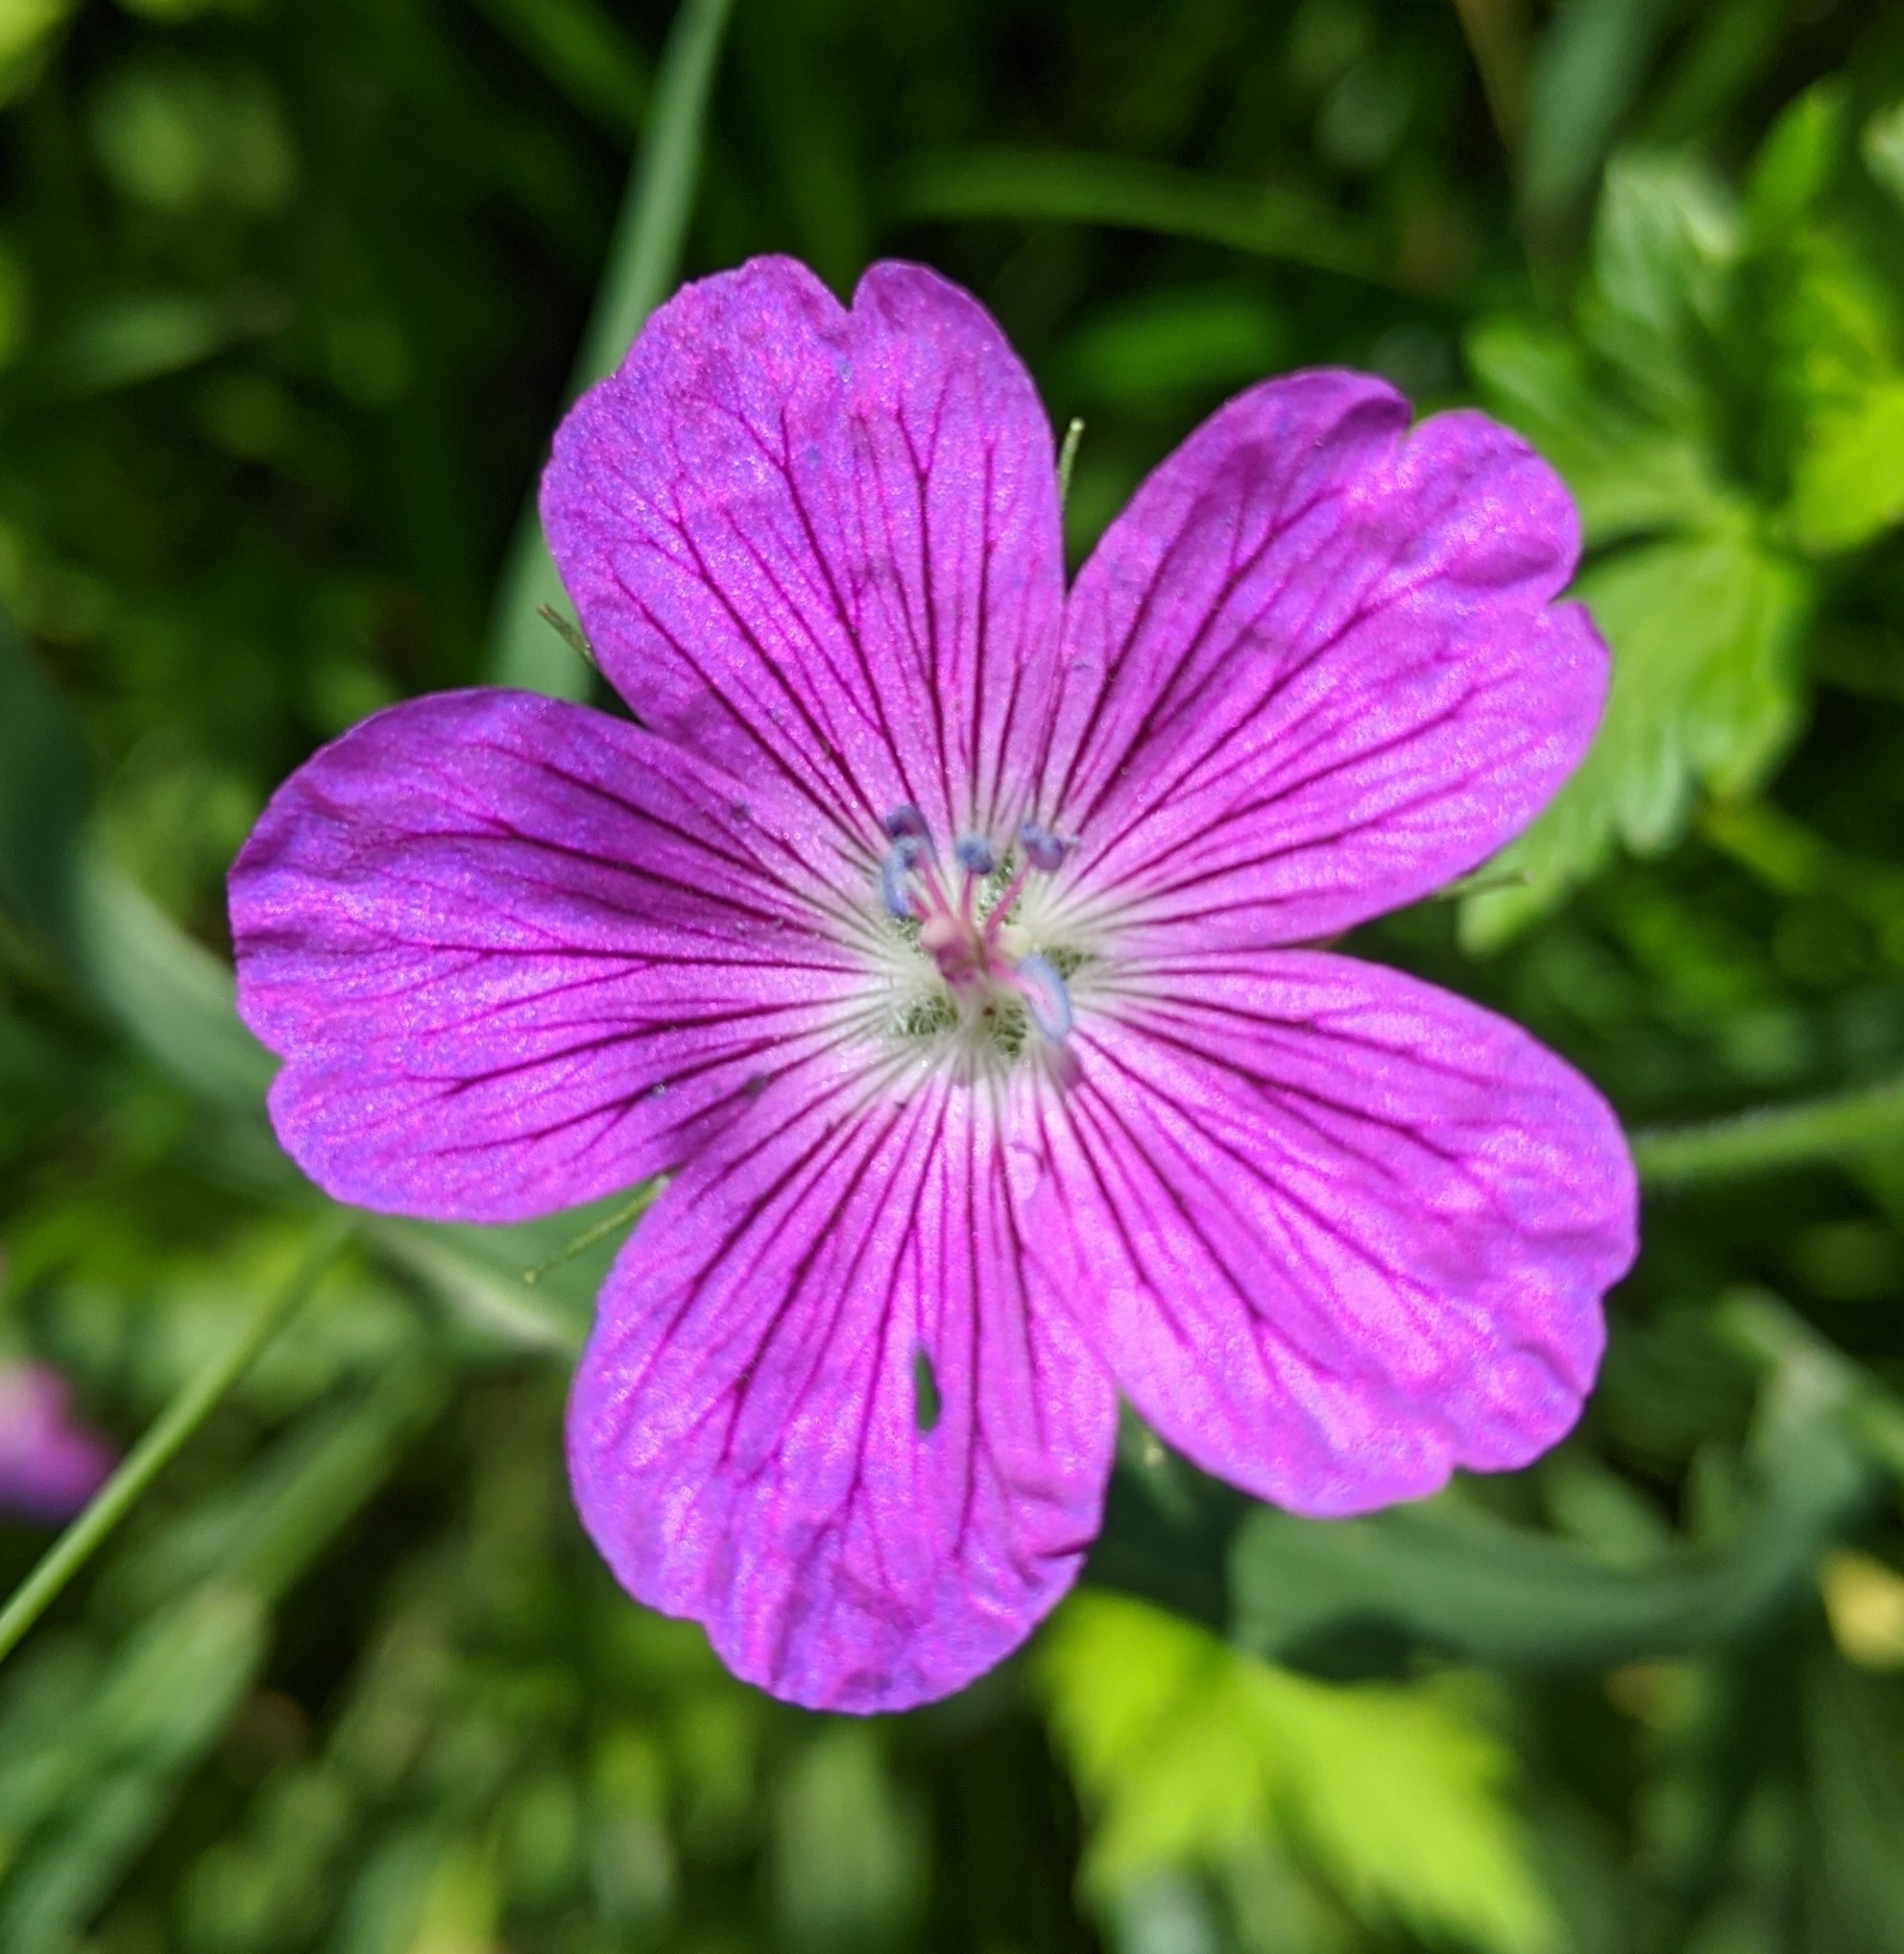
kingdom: Plantae
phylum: Tracheophyta
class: Magnoliopsida
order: Geraniales
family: Geraniaceae
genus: Geranium
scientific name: Geranium palustre
